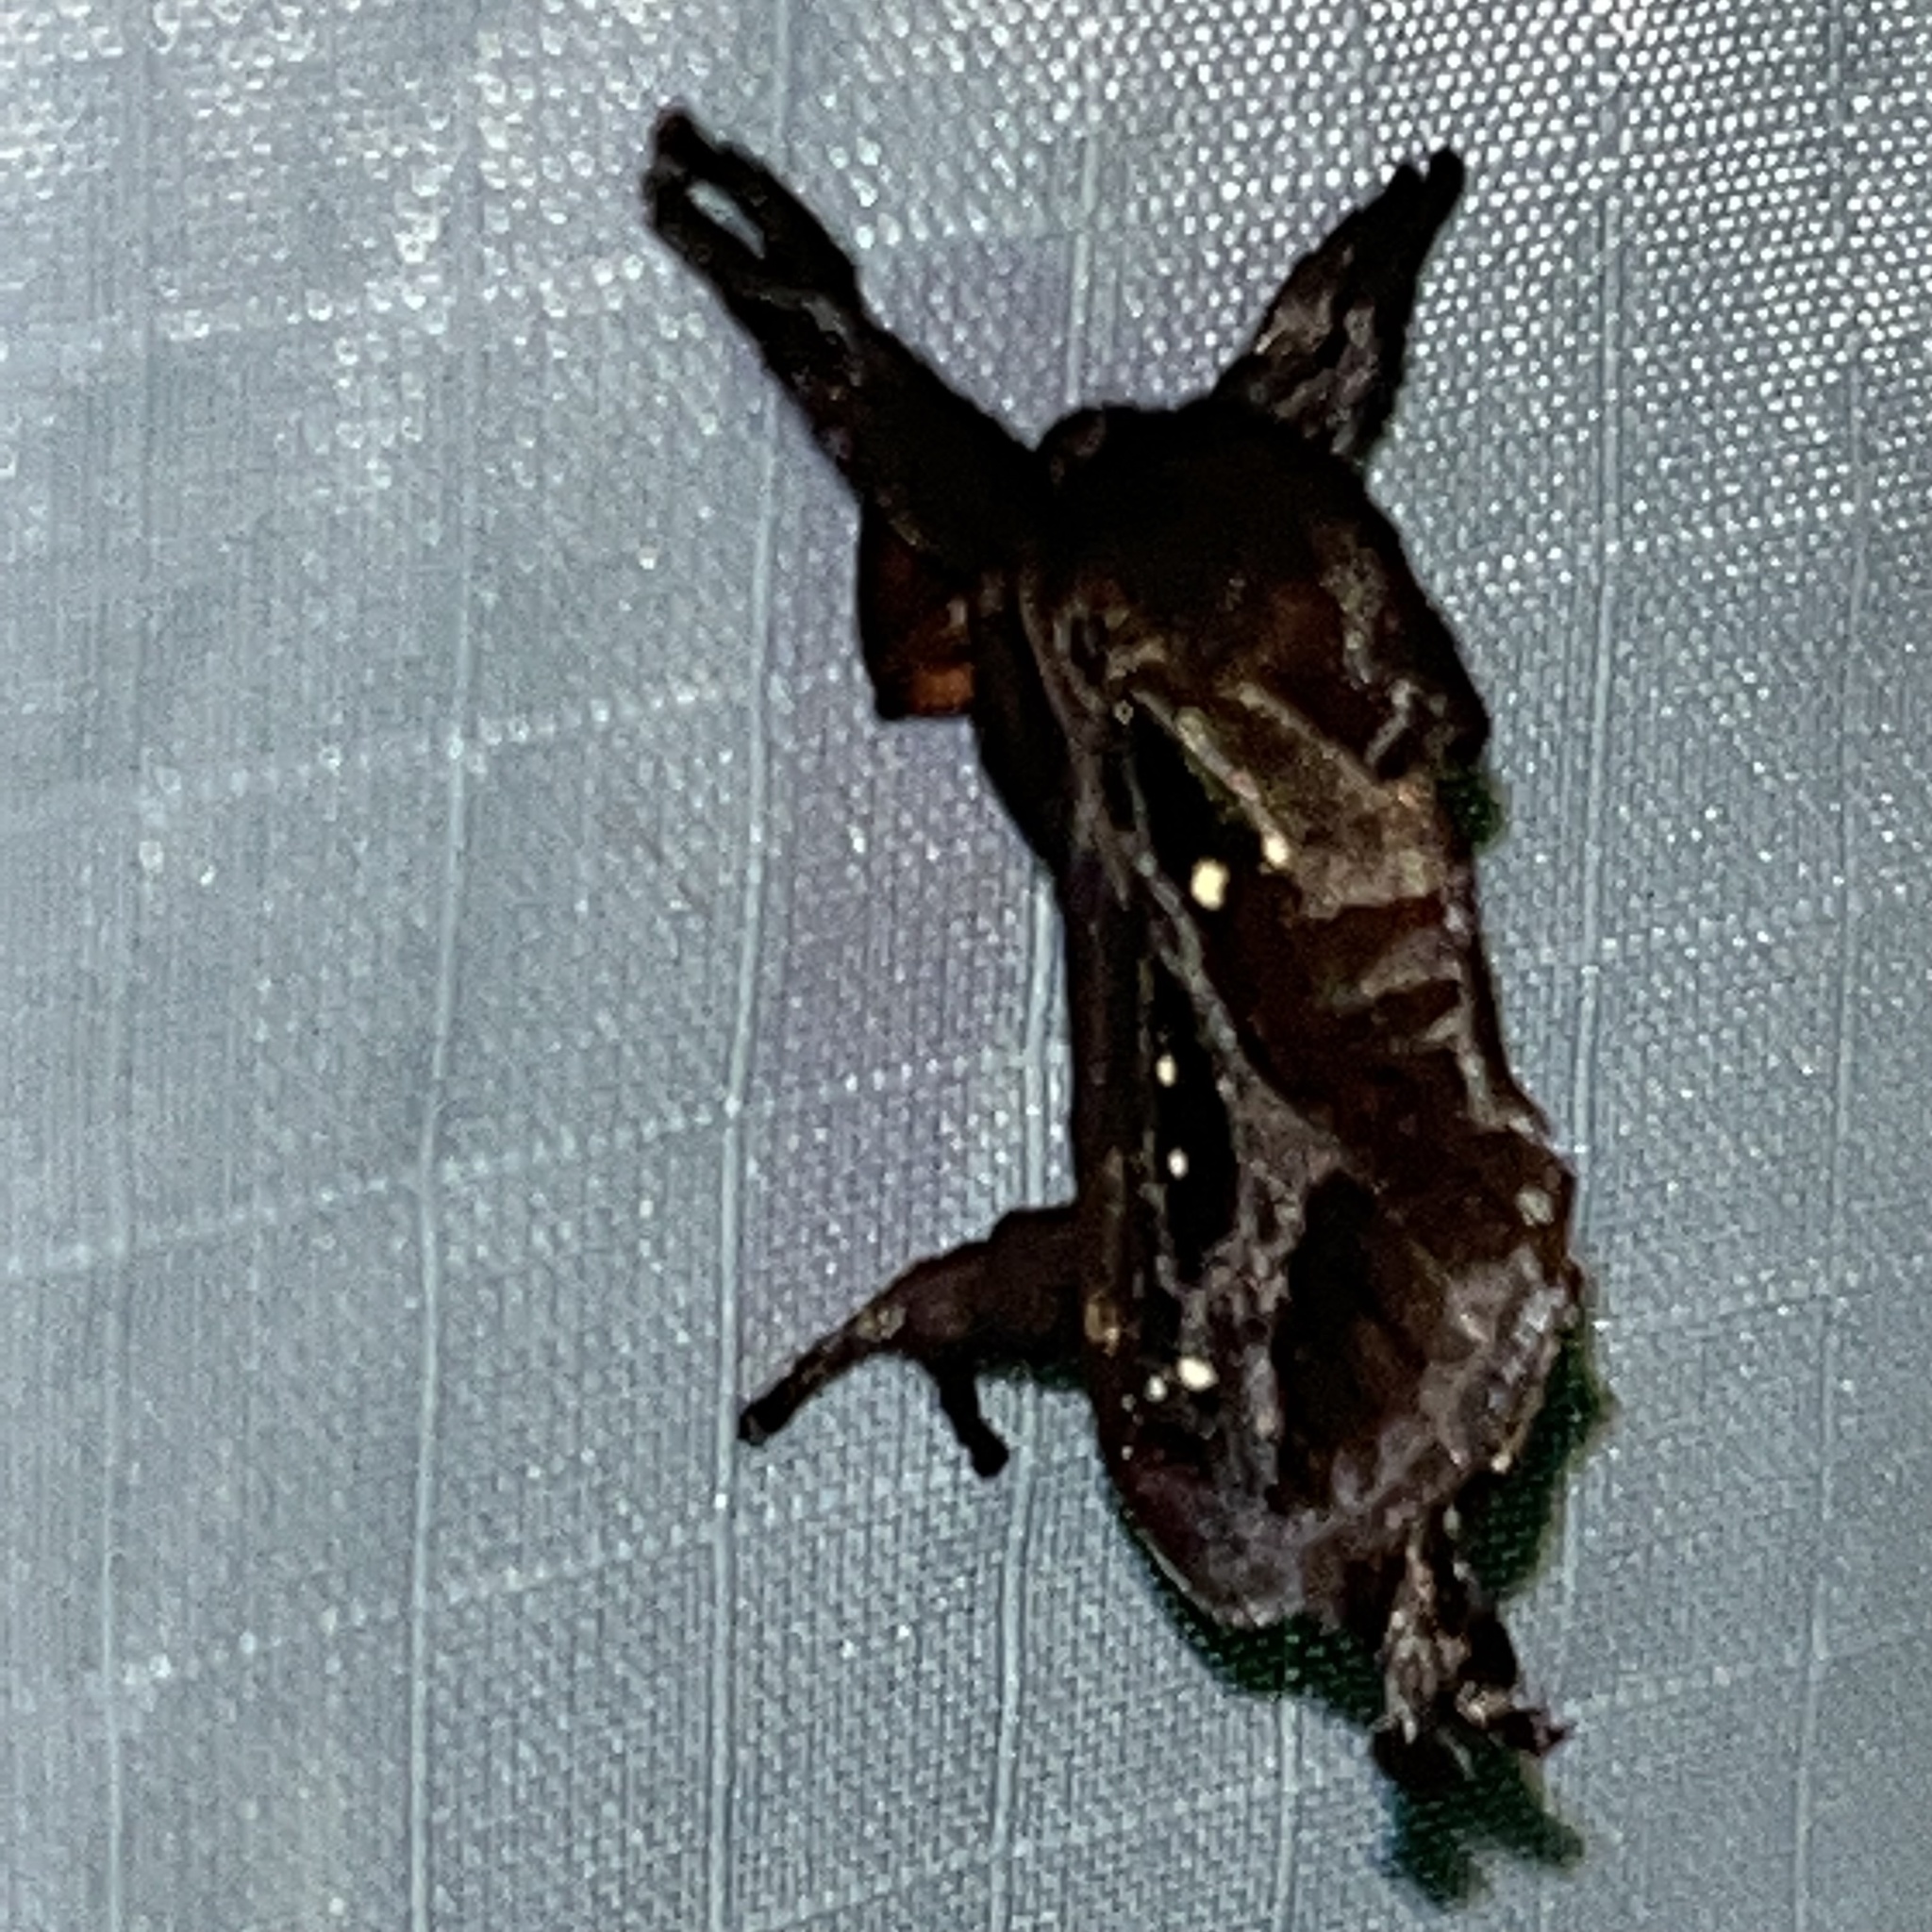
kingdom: Animalia
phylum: Arthropoda
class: Insecta
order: Lepidoptera
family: Limacodidae
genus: Acharia
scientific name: Acharia stimulea
